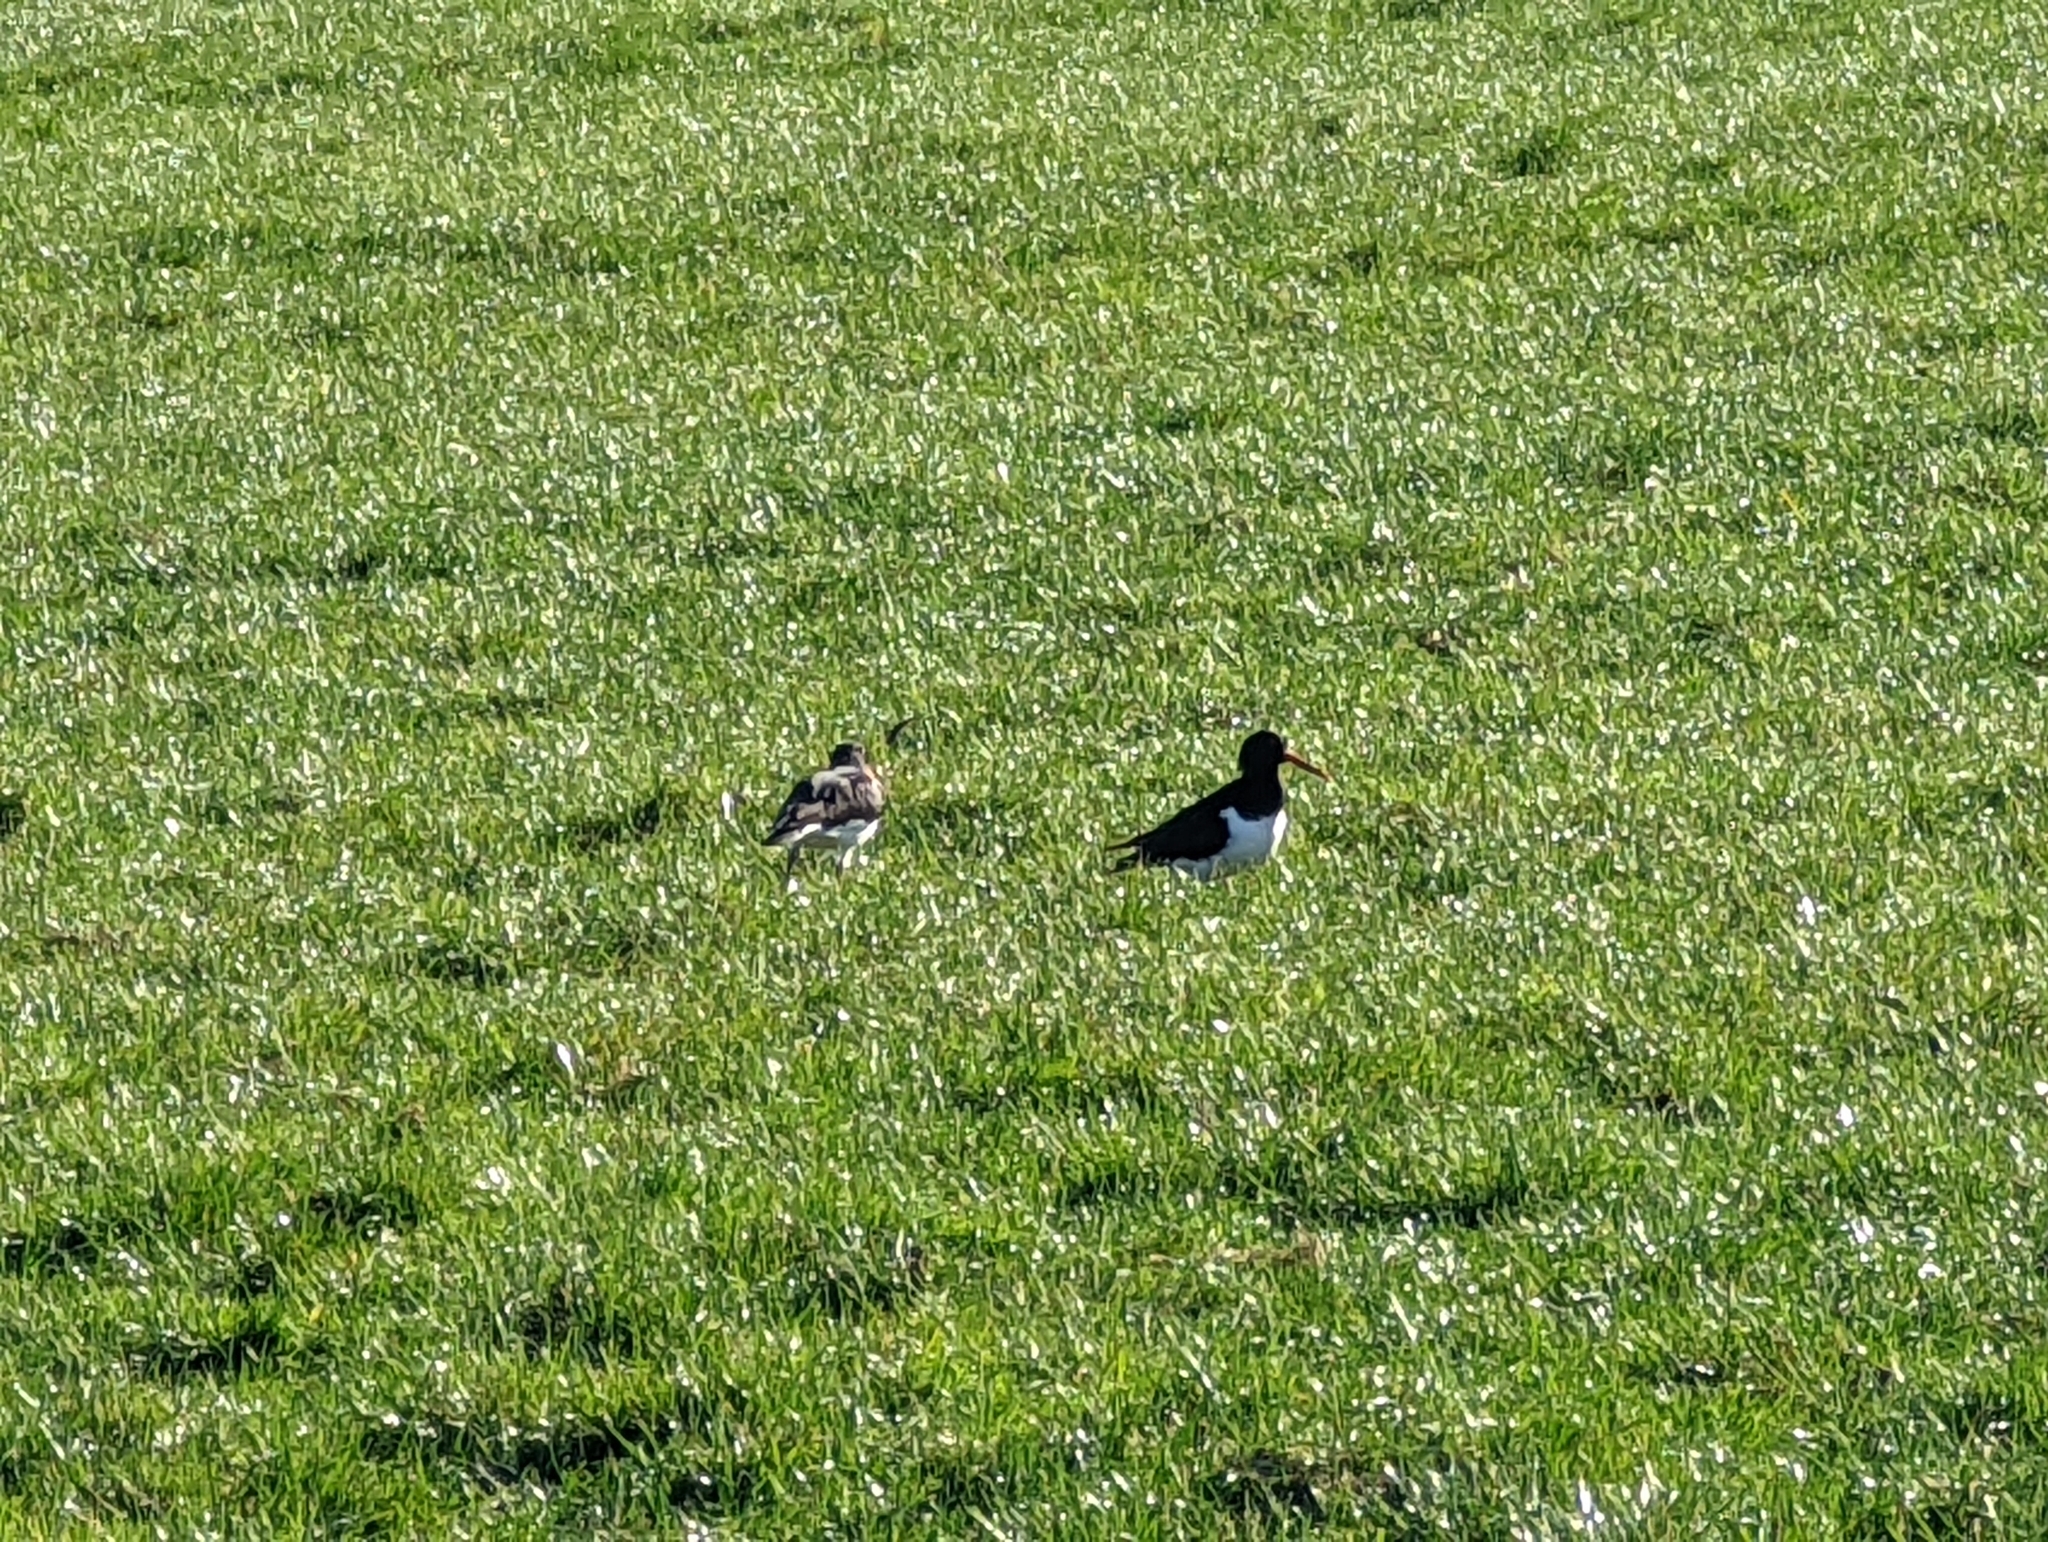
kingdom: Animalia
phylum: Chordata
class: Aves
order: Charadriiformes
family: Haematopodidae
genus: Haematopus
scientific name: Haematopus ostralegus
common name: Eurasian oystercatcher
